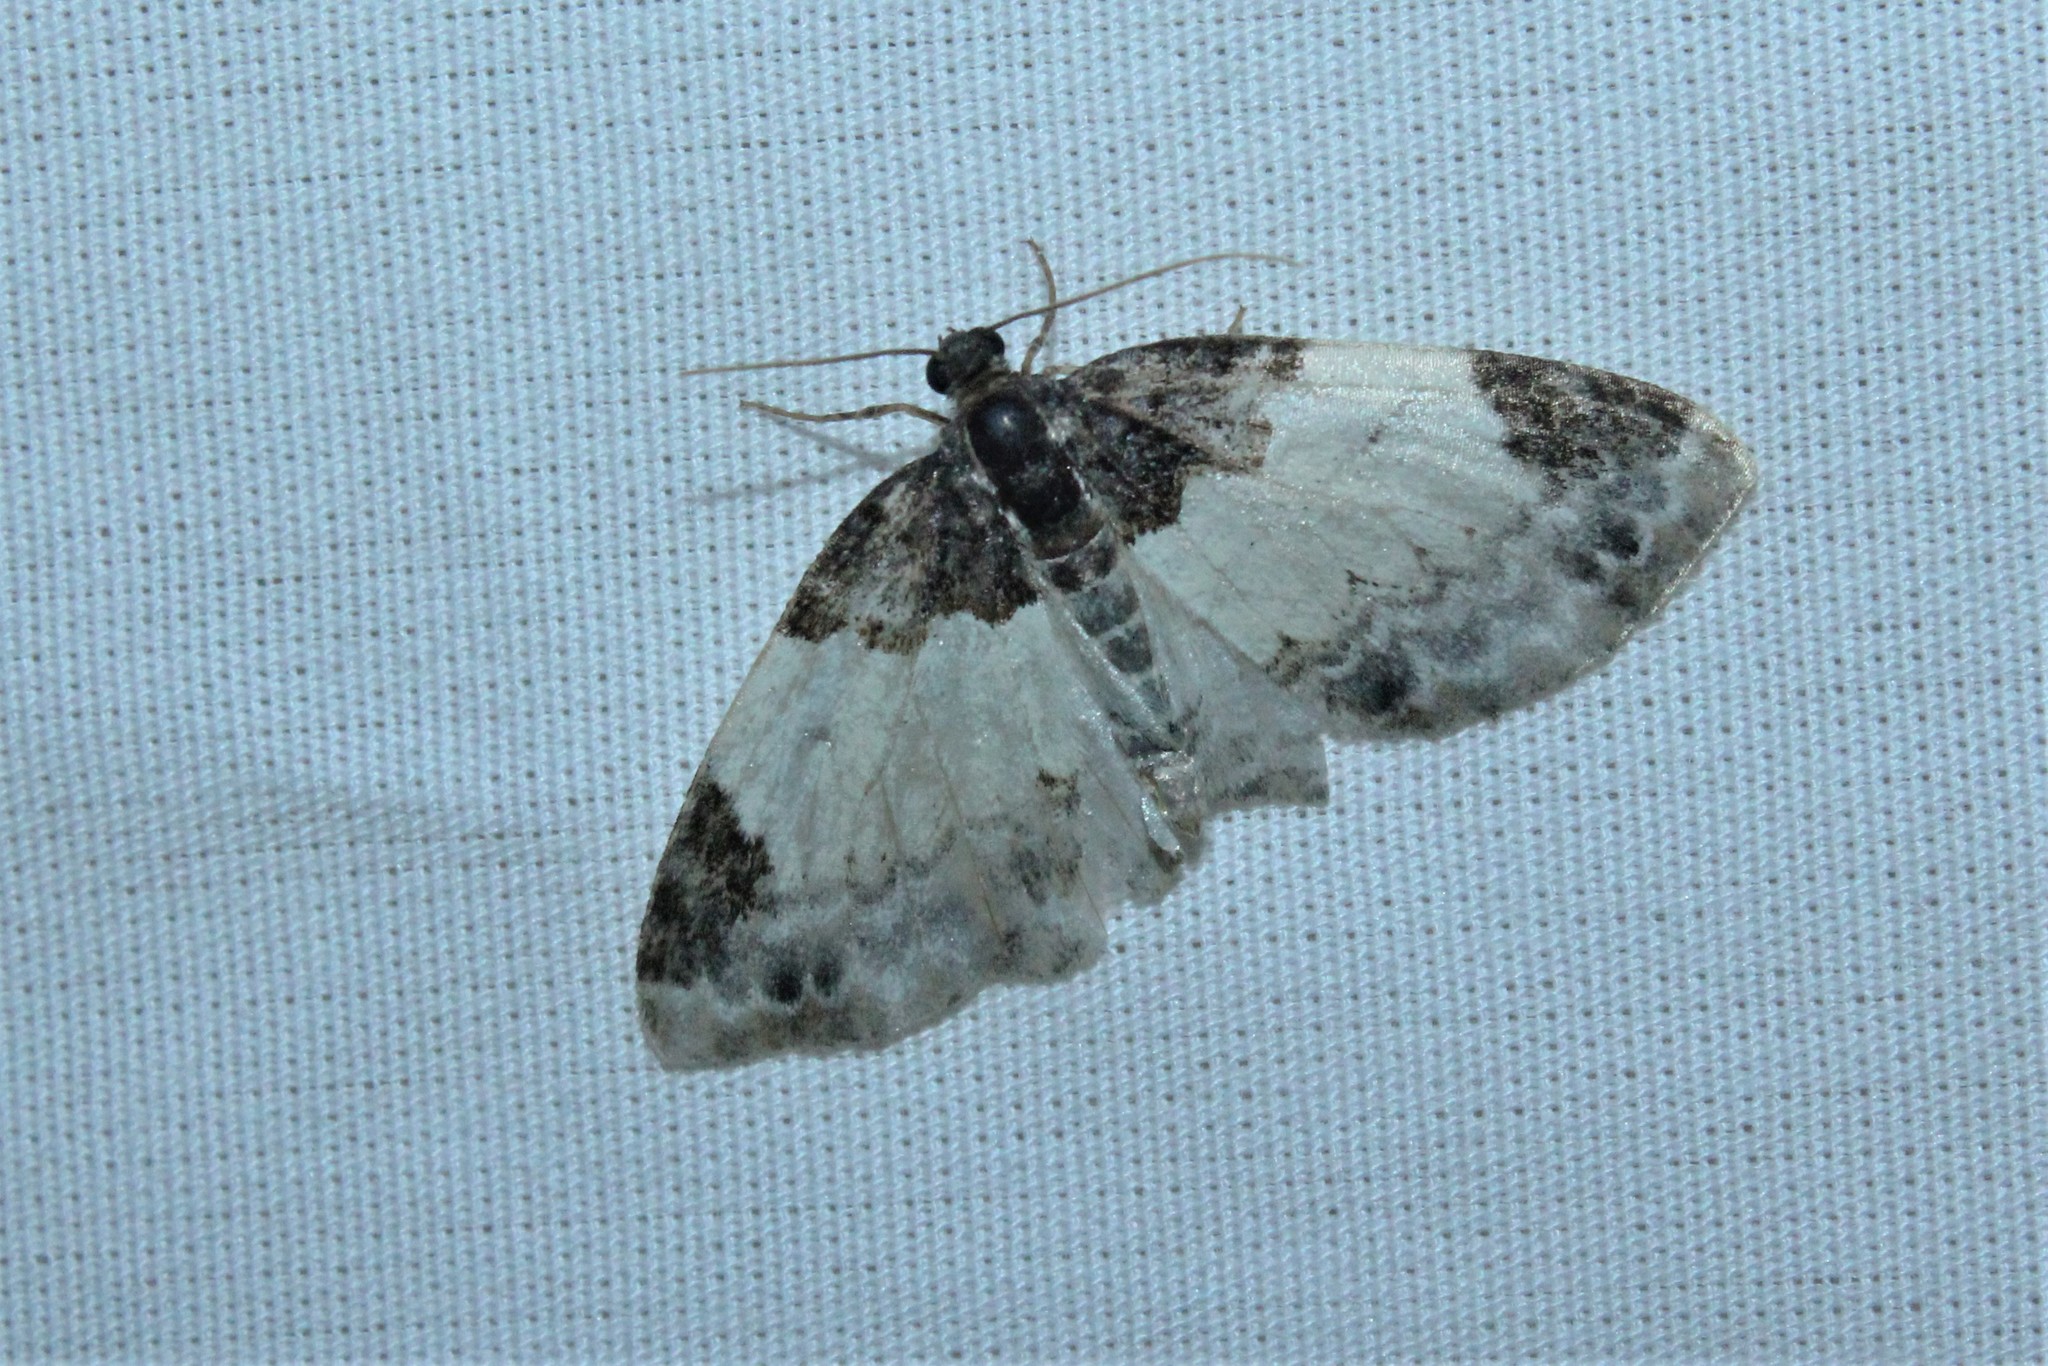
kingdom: Animalia
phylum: Arthropoda
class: Insecta
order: Lepidoptera
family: Geometridae
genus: Mesoleuca
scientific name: Mesoleuca ruficillata
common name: White-ribboned carpet moth
